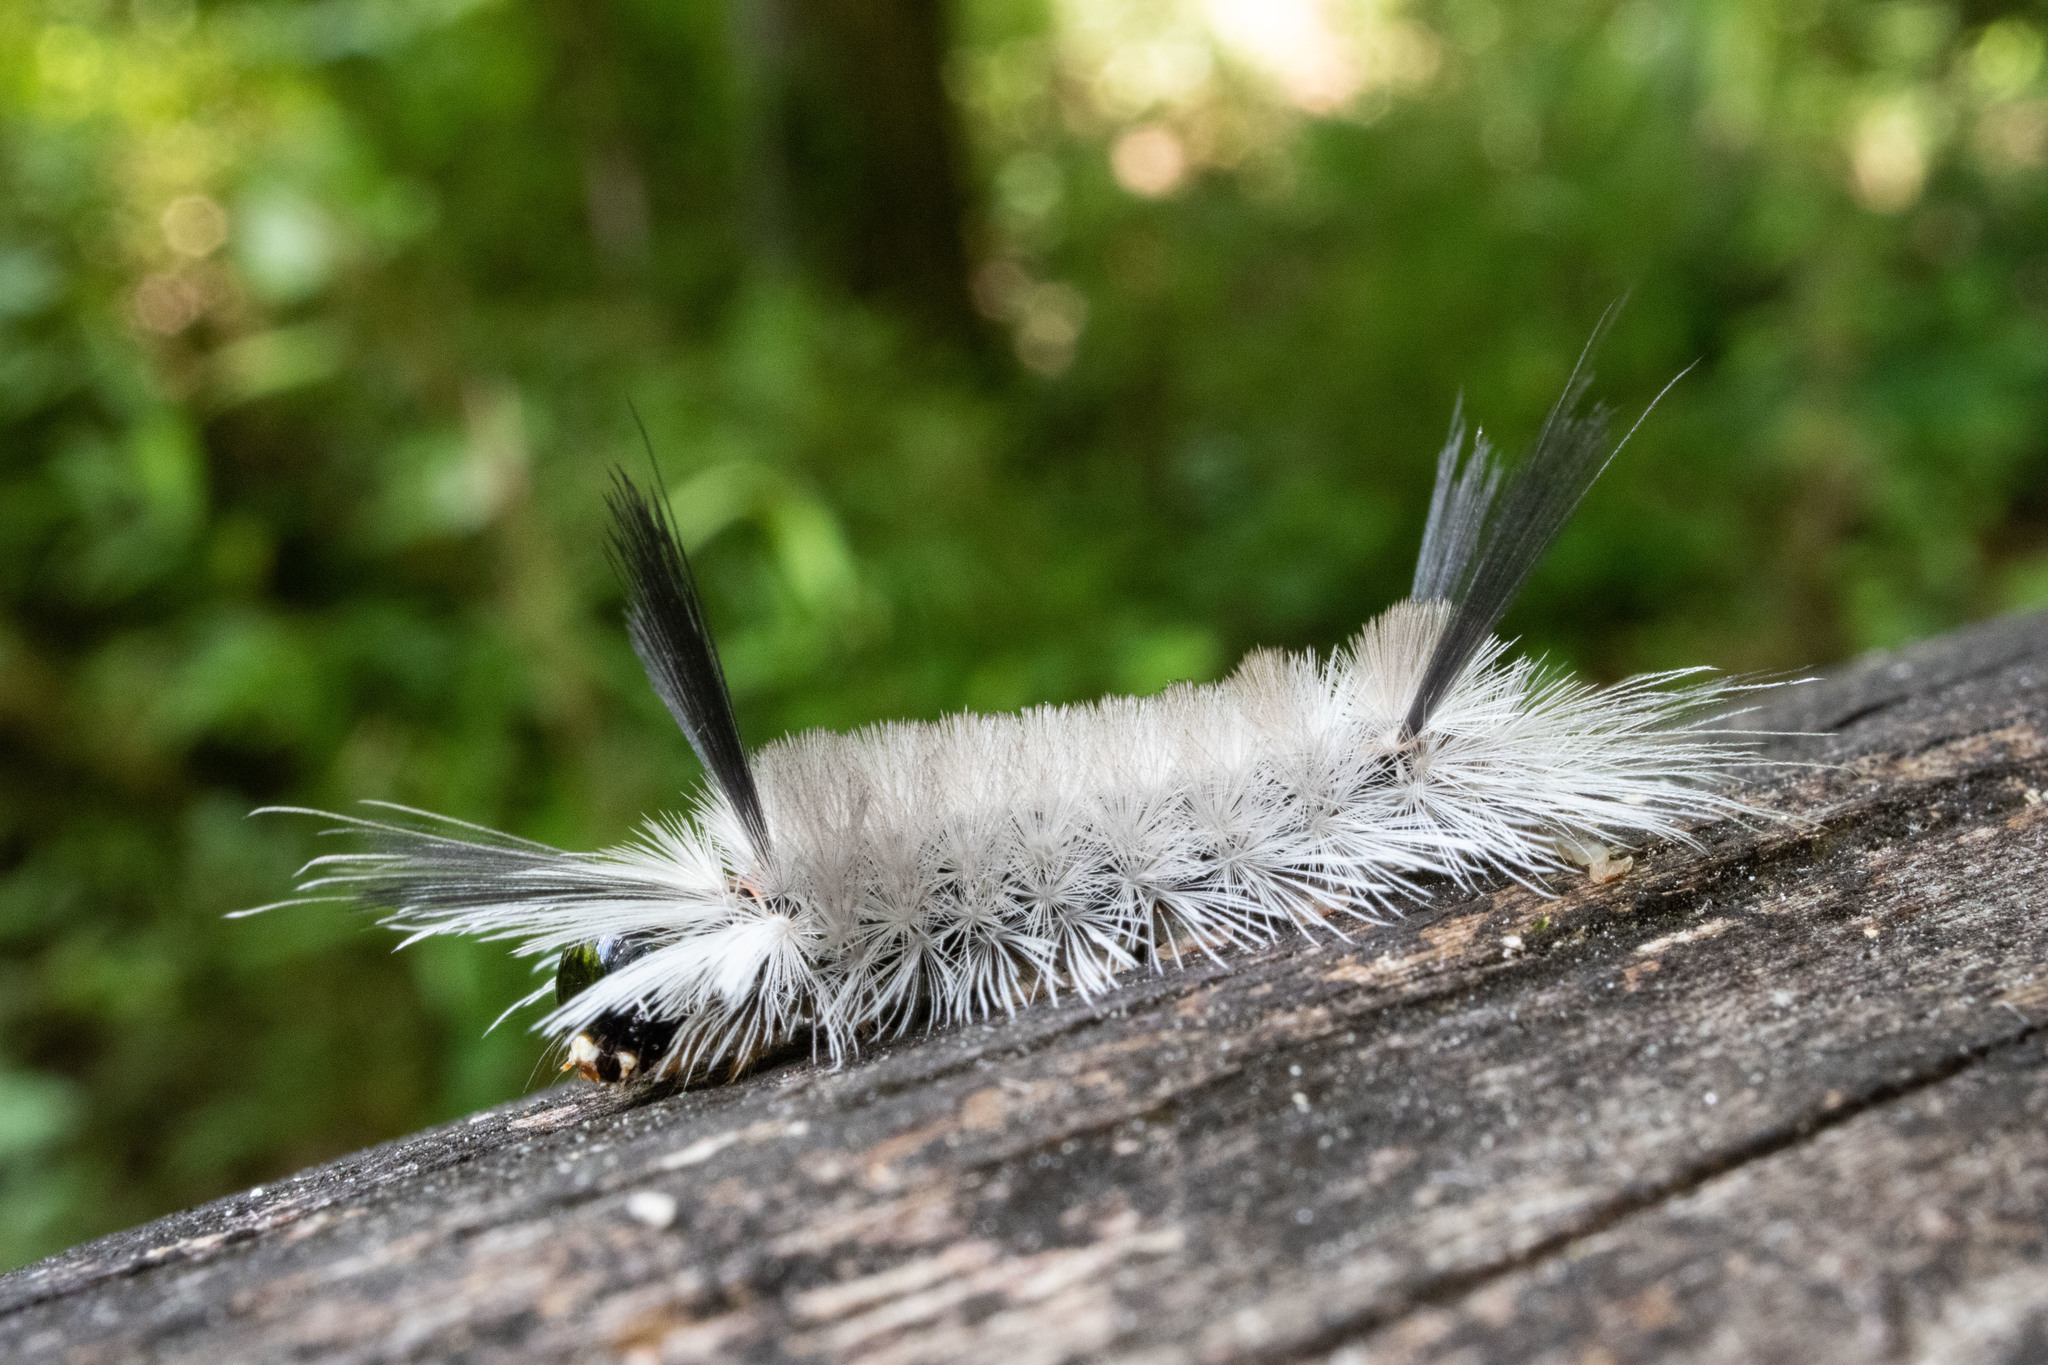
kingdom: Animalia
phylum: Arthropoda
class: Insecta
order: Lepidoptera
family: Erebidae
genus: Halysidota
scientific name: Halysidota tessellaris
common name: Banded tussock moth
